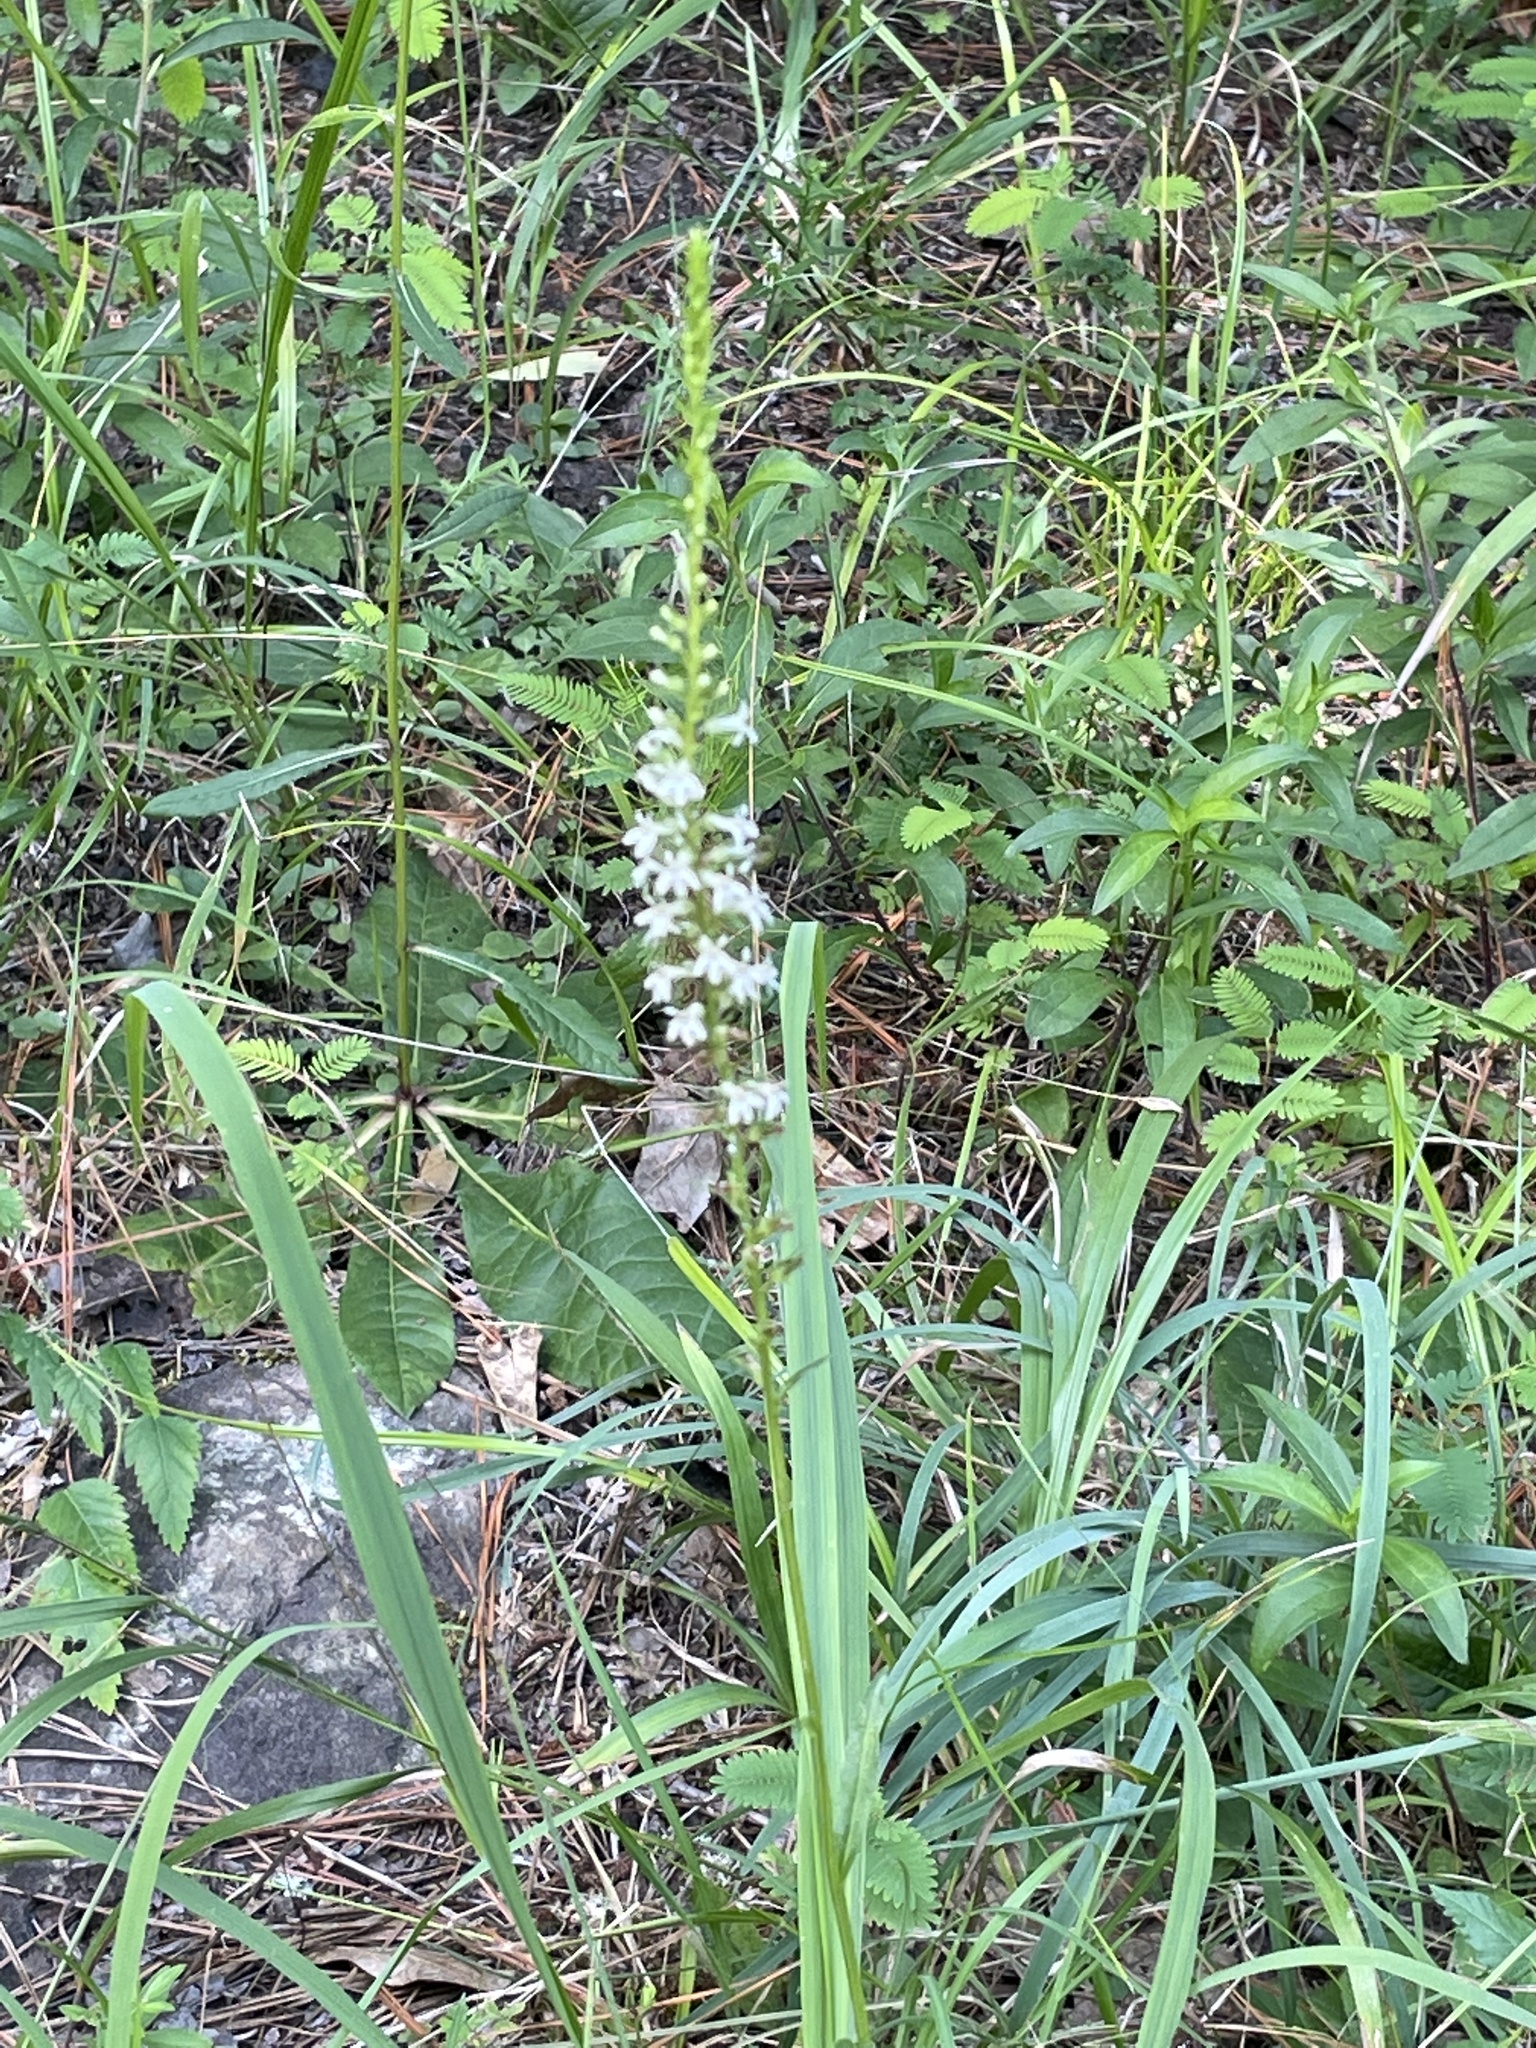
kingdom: Plantae
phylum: Tracheophyta
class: Magnoliopsida
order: Asterales
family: Campanulaceae
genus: Lobelia
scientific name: Lobelia spicata
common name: Pale-spike lobelia
